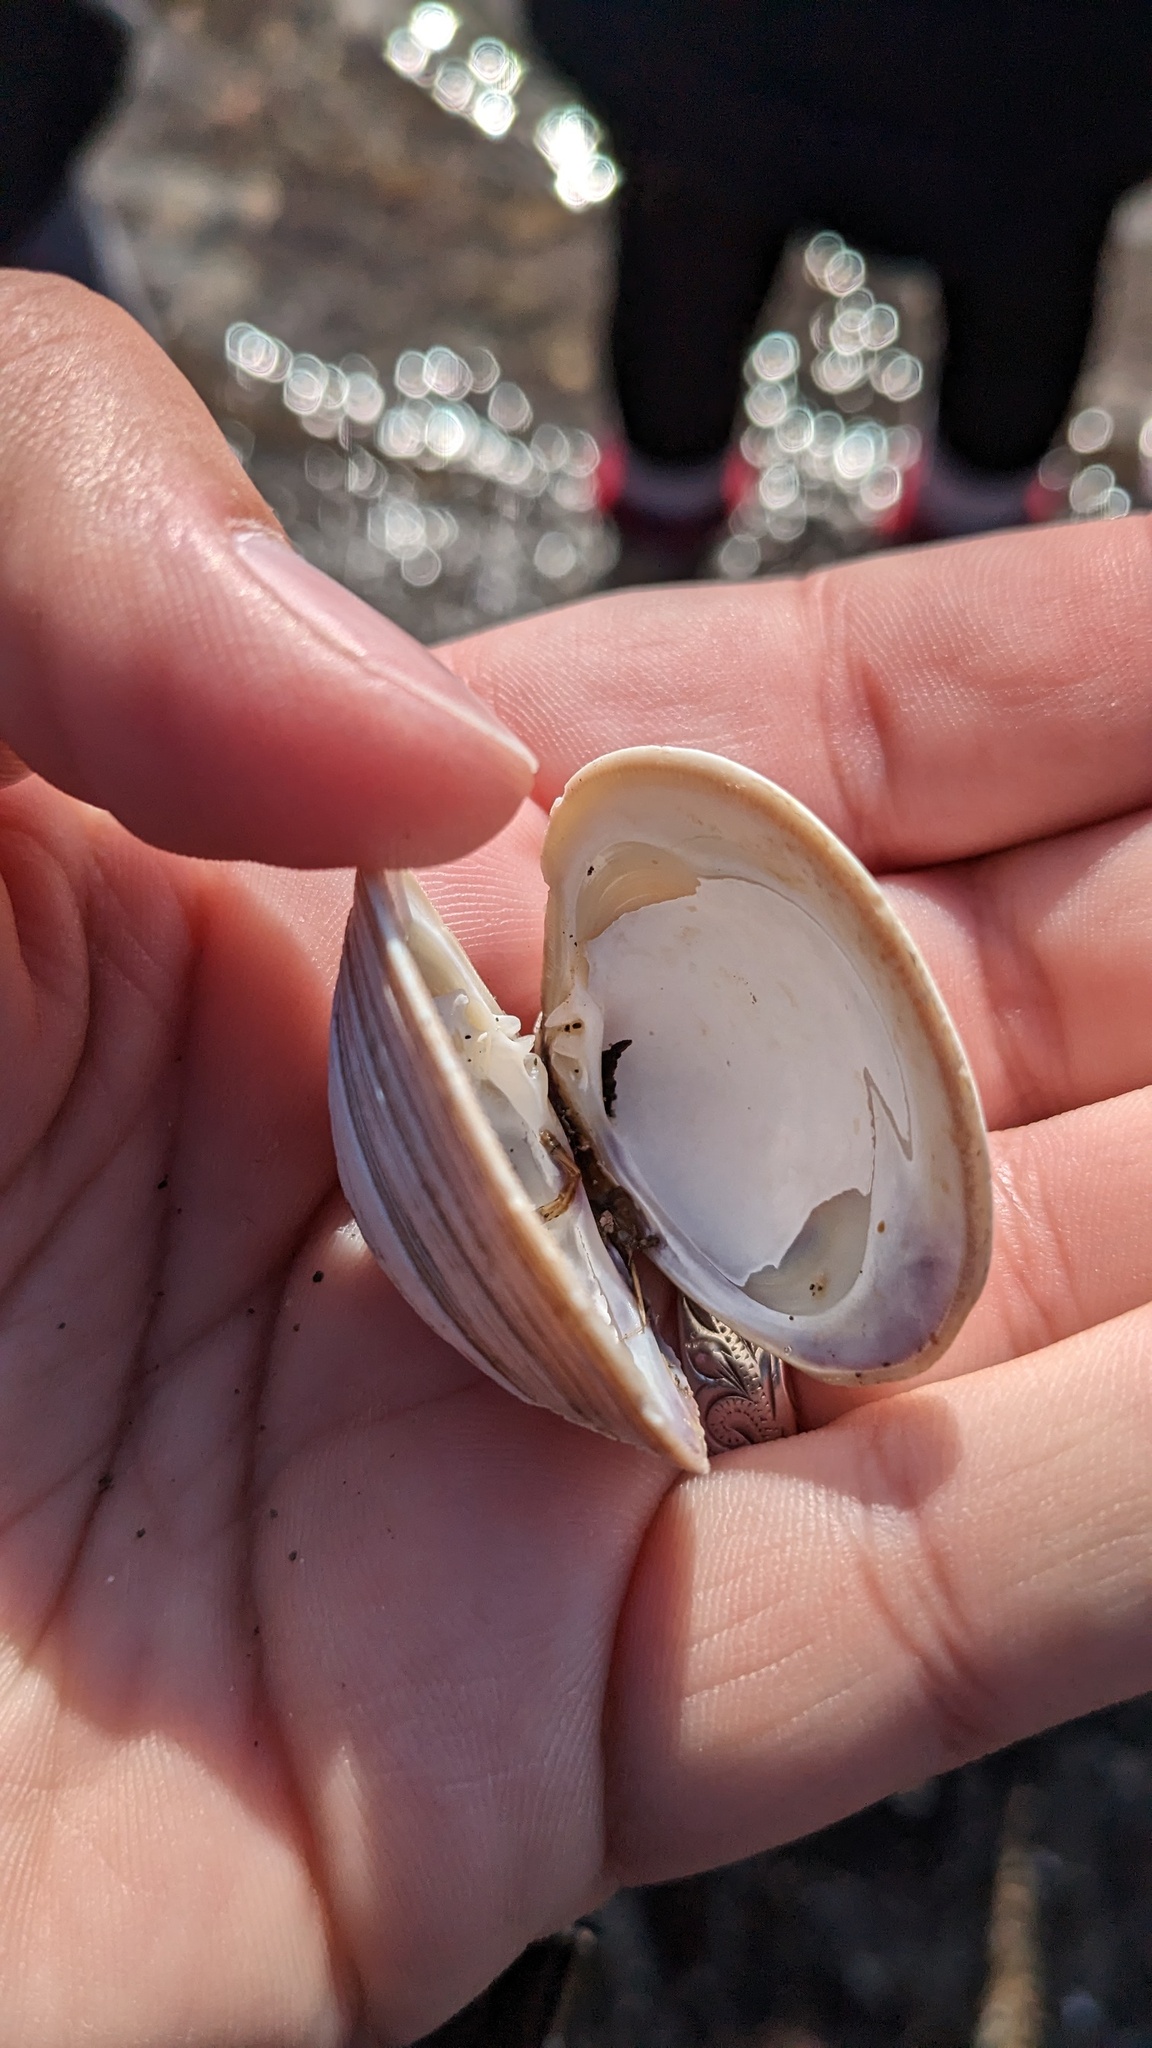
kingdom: Animalia
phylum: Mollusca
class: Bivalvia
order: Venerida
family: Veneridae
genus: Mercenaria
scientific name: Mercenaria mercenaria
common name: American hard-shelled clam
